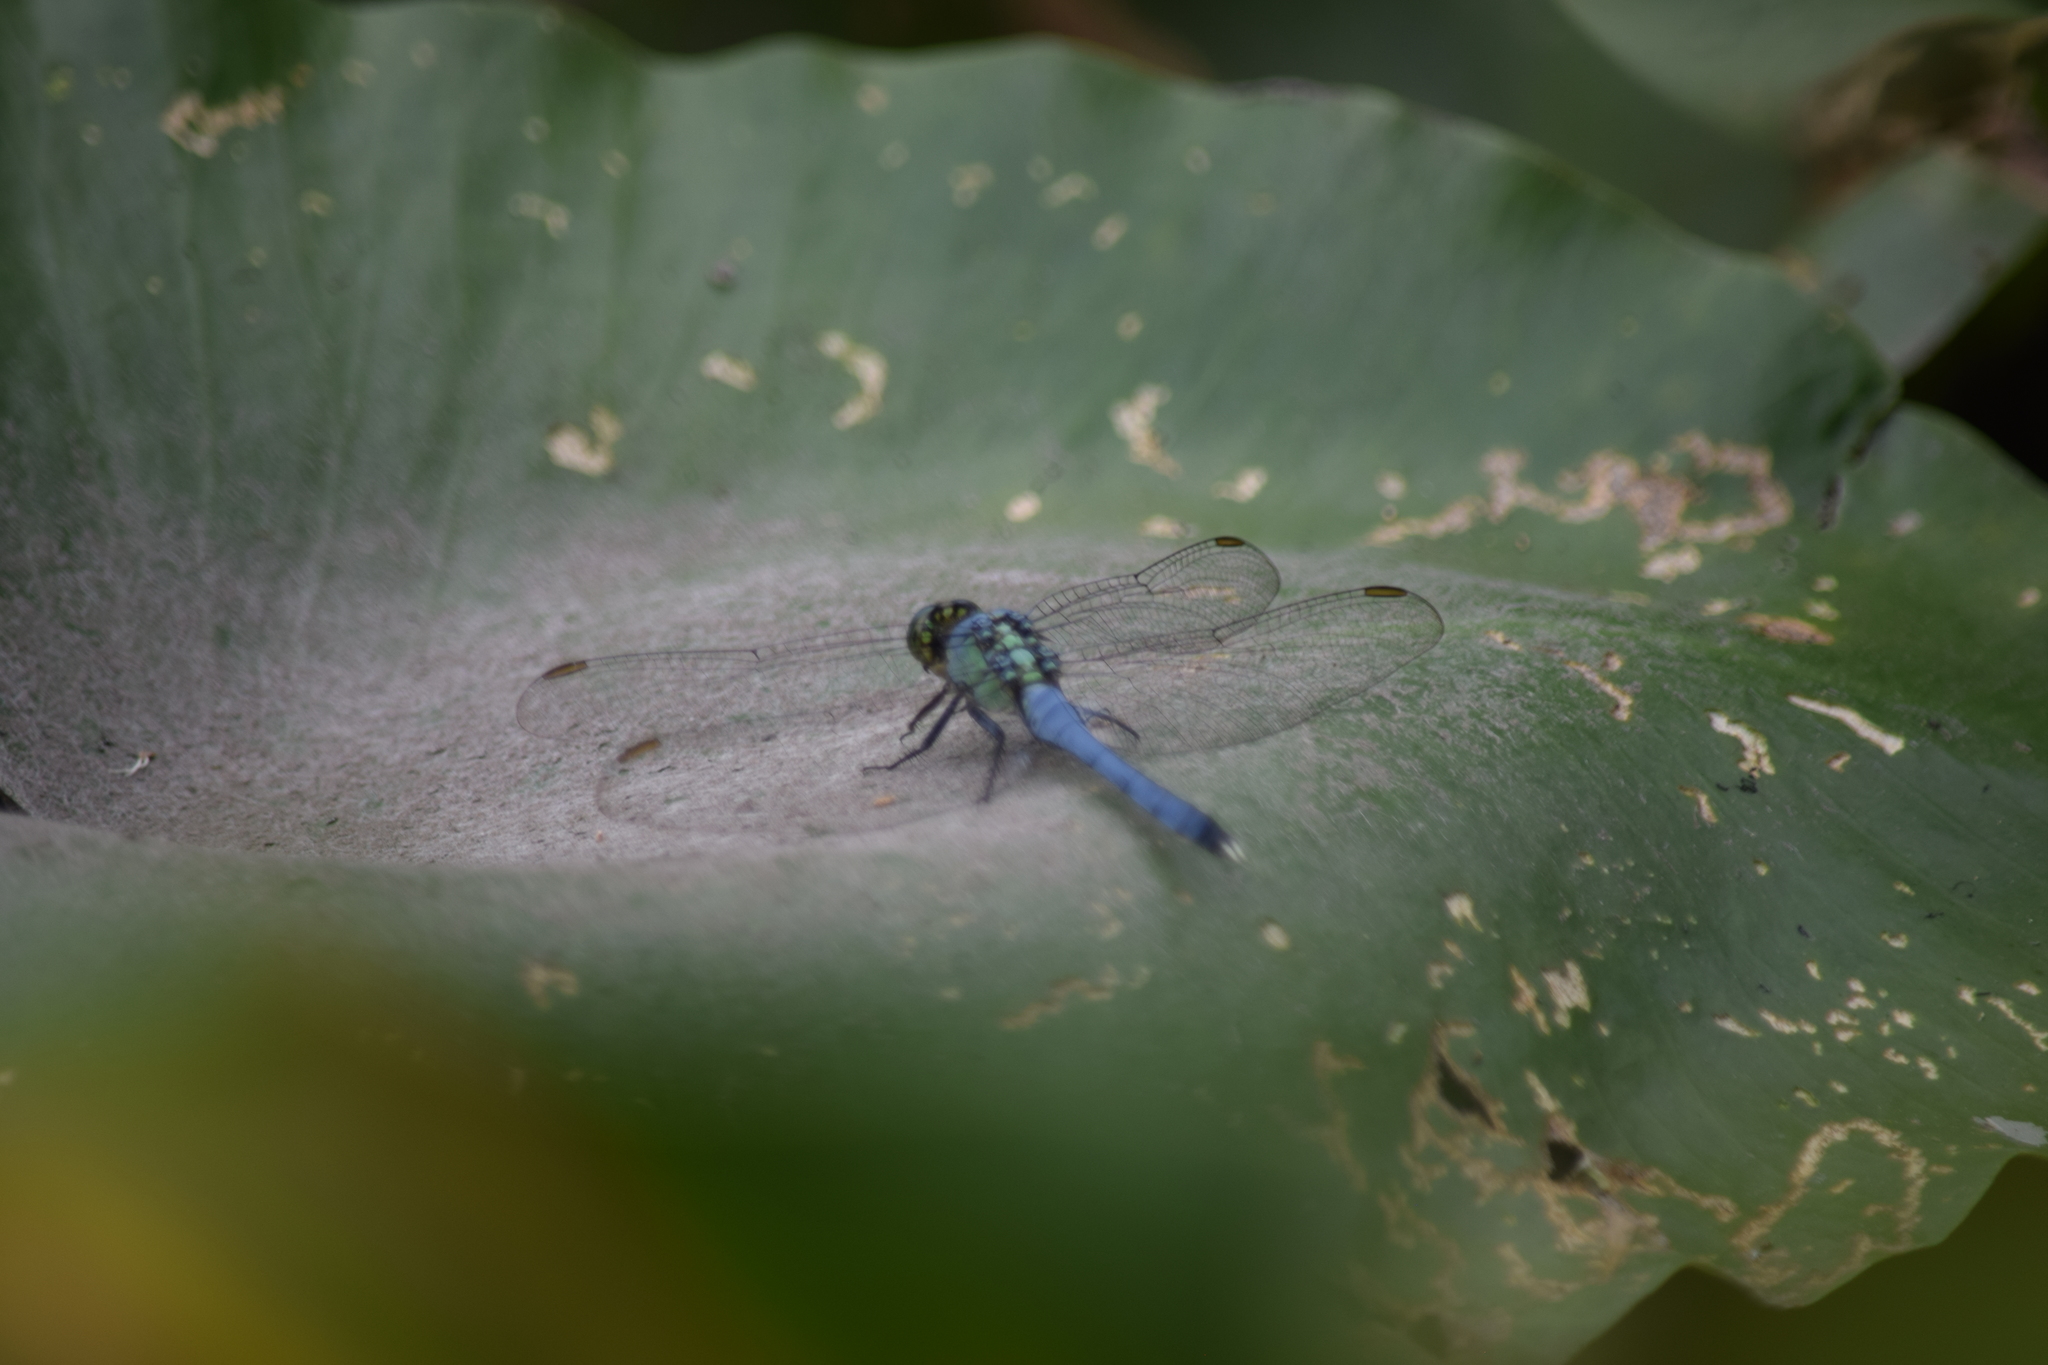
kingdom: Animalia
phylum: Arthropoda
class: Insecta
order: Odonata
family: Libellulidae
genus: Erythemis
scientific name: Erythemis simplicicollis
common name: Eastern pondhawk
